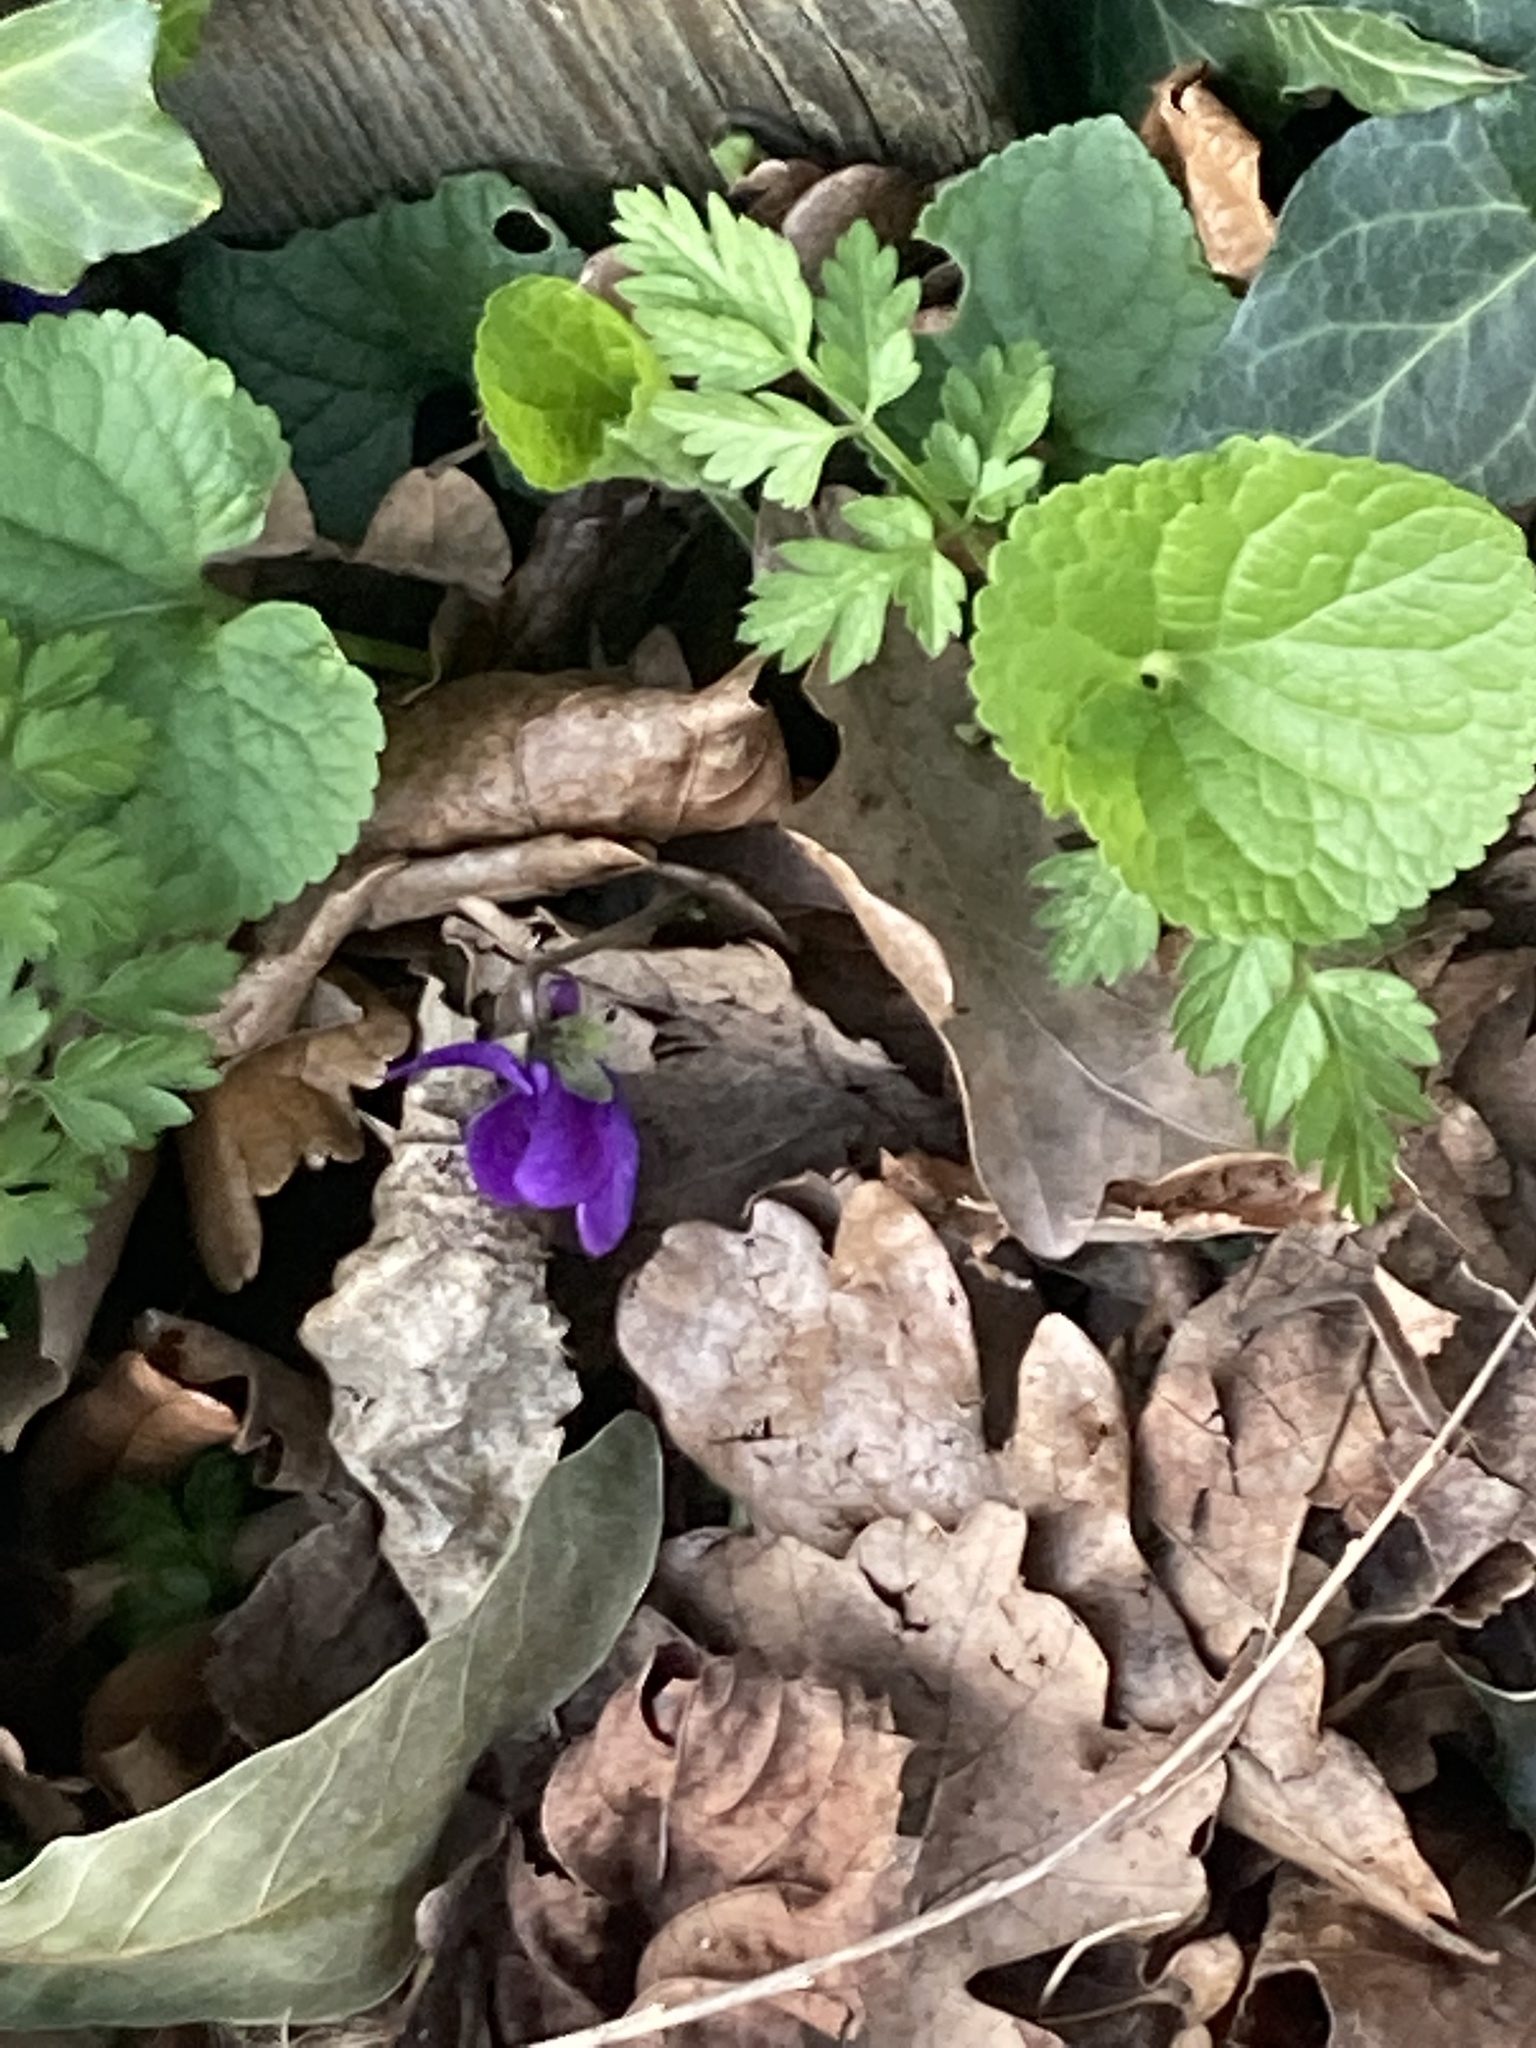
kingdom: Plantae
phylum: Tracheophyta
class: Magnoliopsida
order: Malpighiales
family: Violaceae
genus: Viola
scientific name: Viola odorata
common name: Sweet violet
